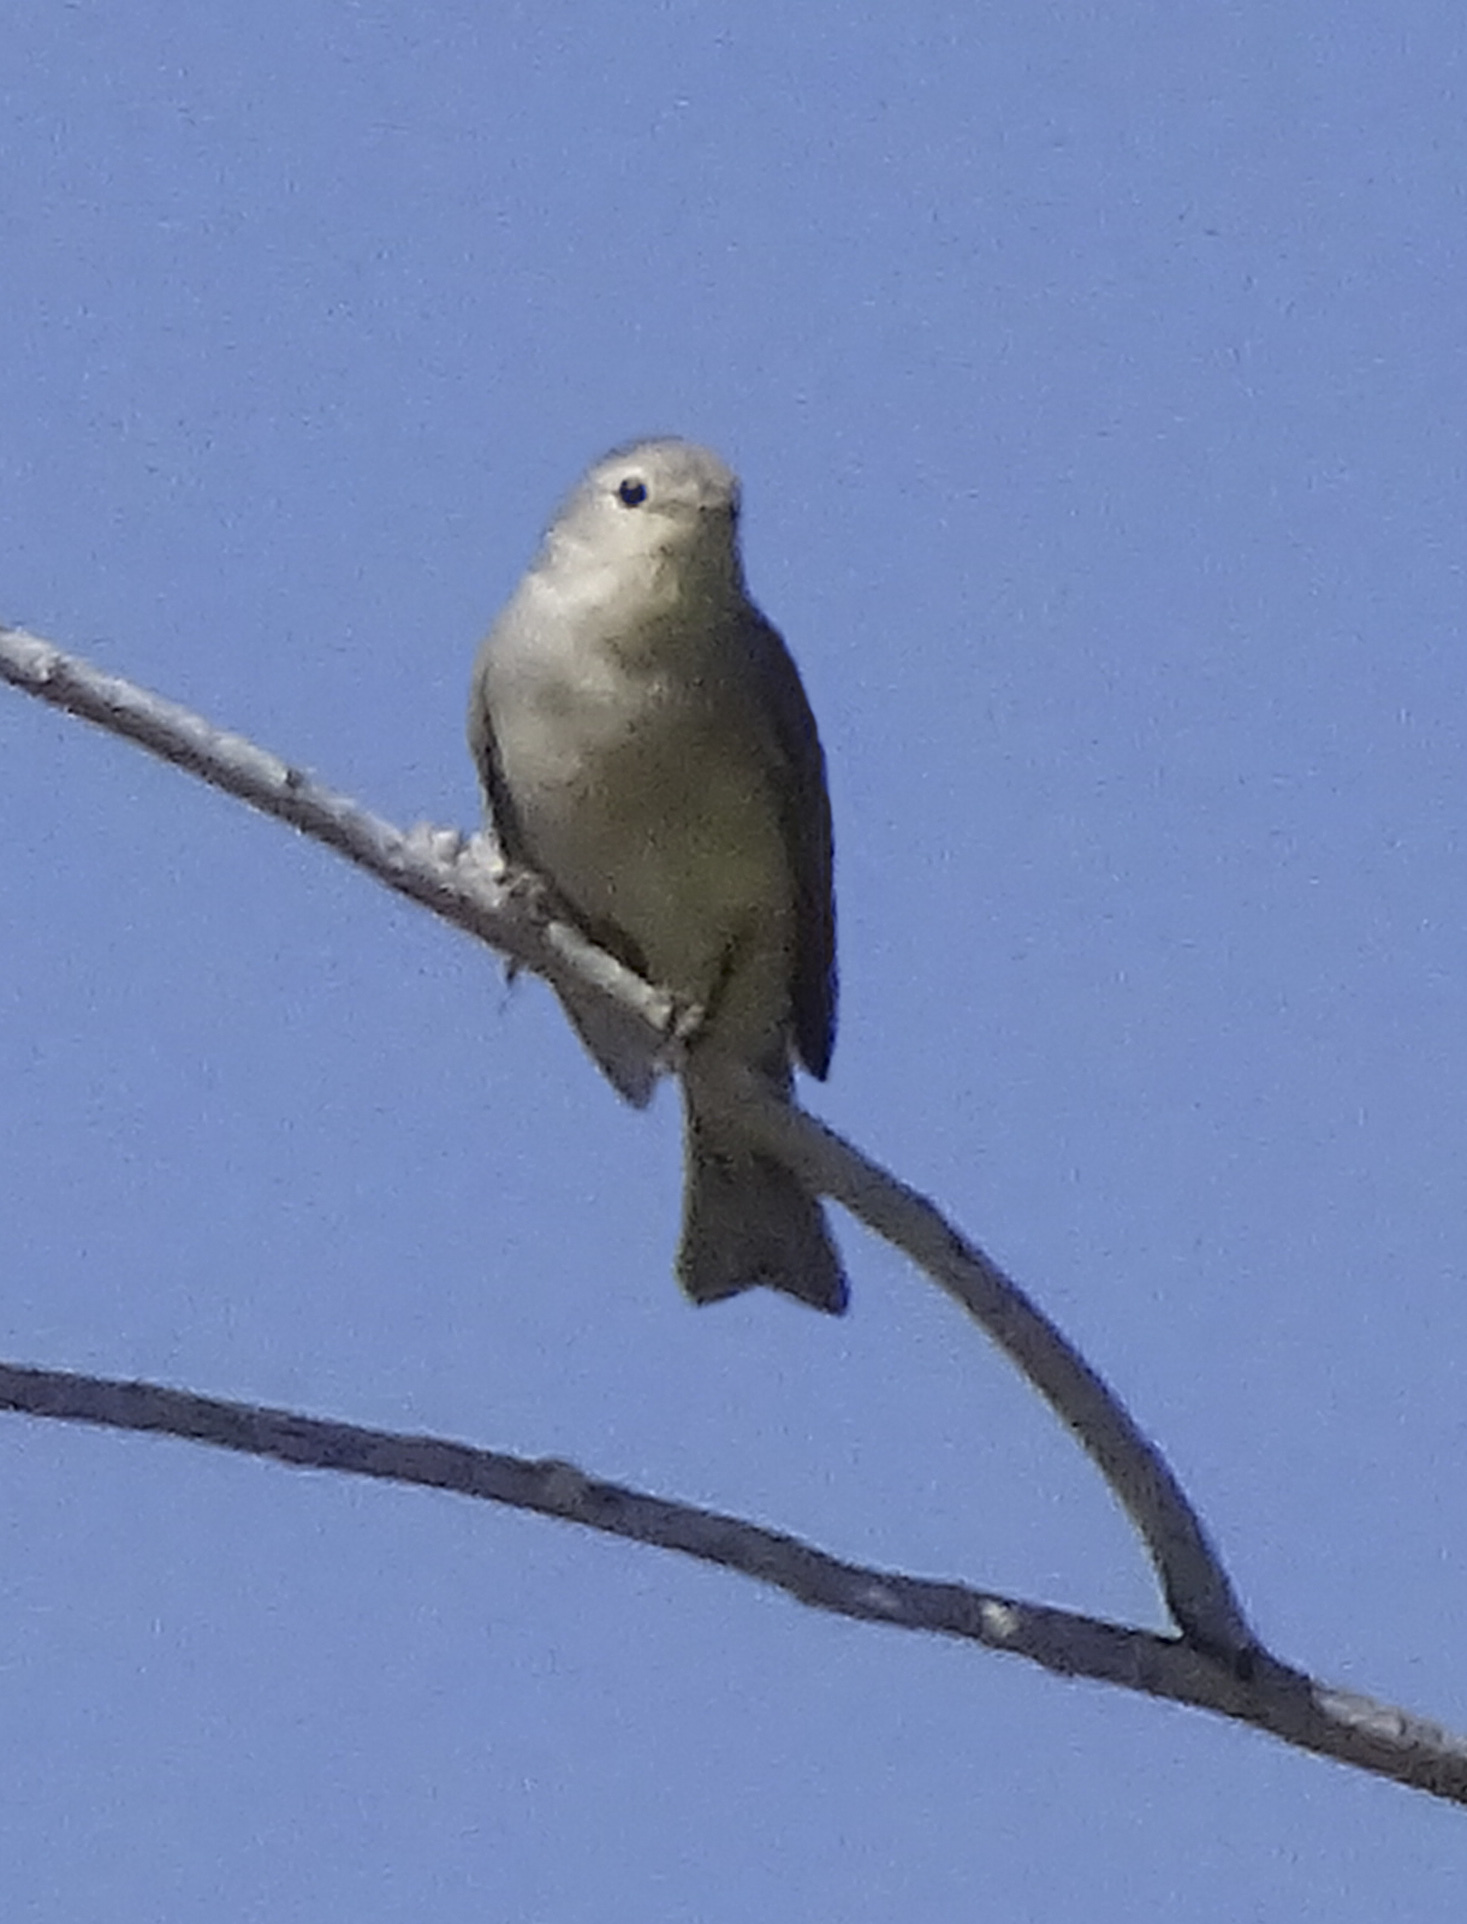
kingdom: Animalia
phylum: Chordata
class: Aves
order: Passeriformes
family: Parulidae
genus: Leiothlypis
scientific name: Leiothlypis luciae
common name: Lucy's warbler
